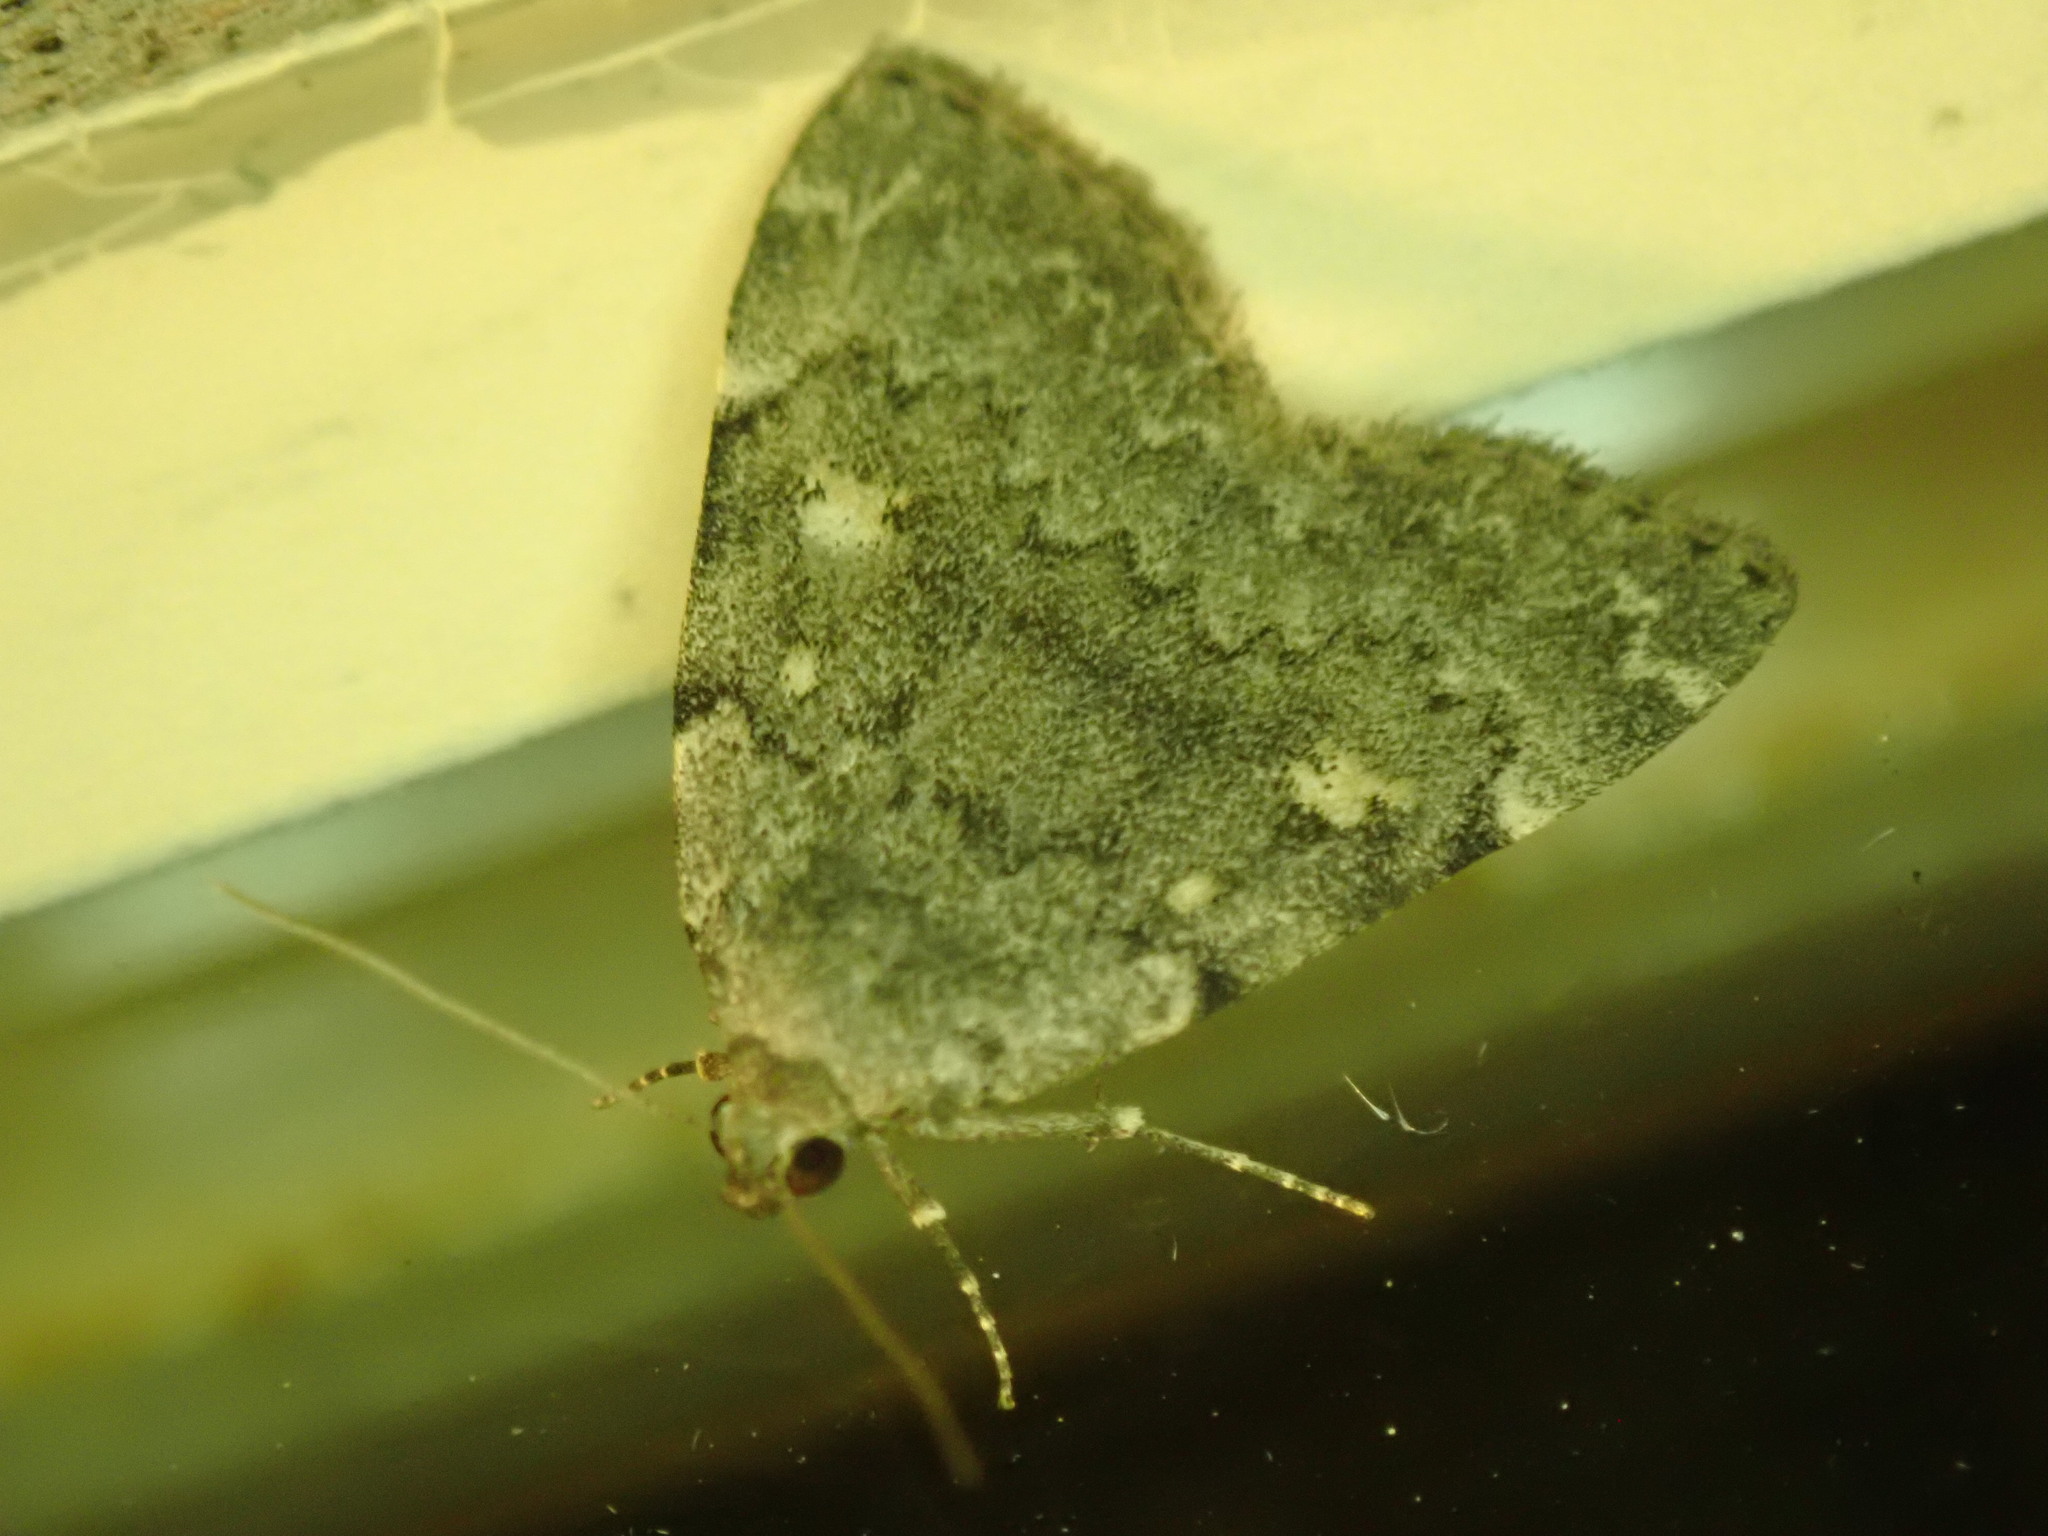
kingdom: Animalia
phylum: Arthropoda
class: Insecta
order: Lepidoptera
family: Erebidae
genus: Idia
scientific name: Idia aemula
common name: Common idia moth
